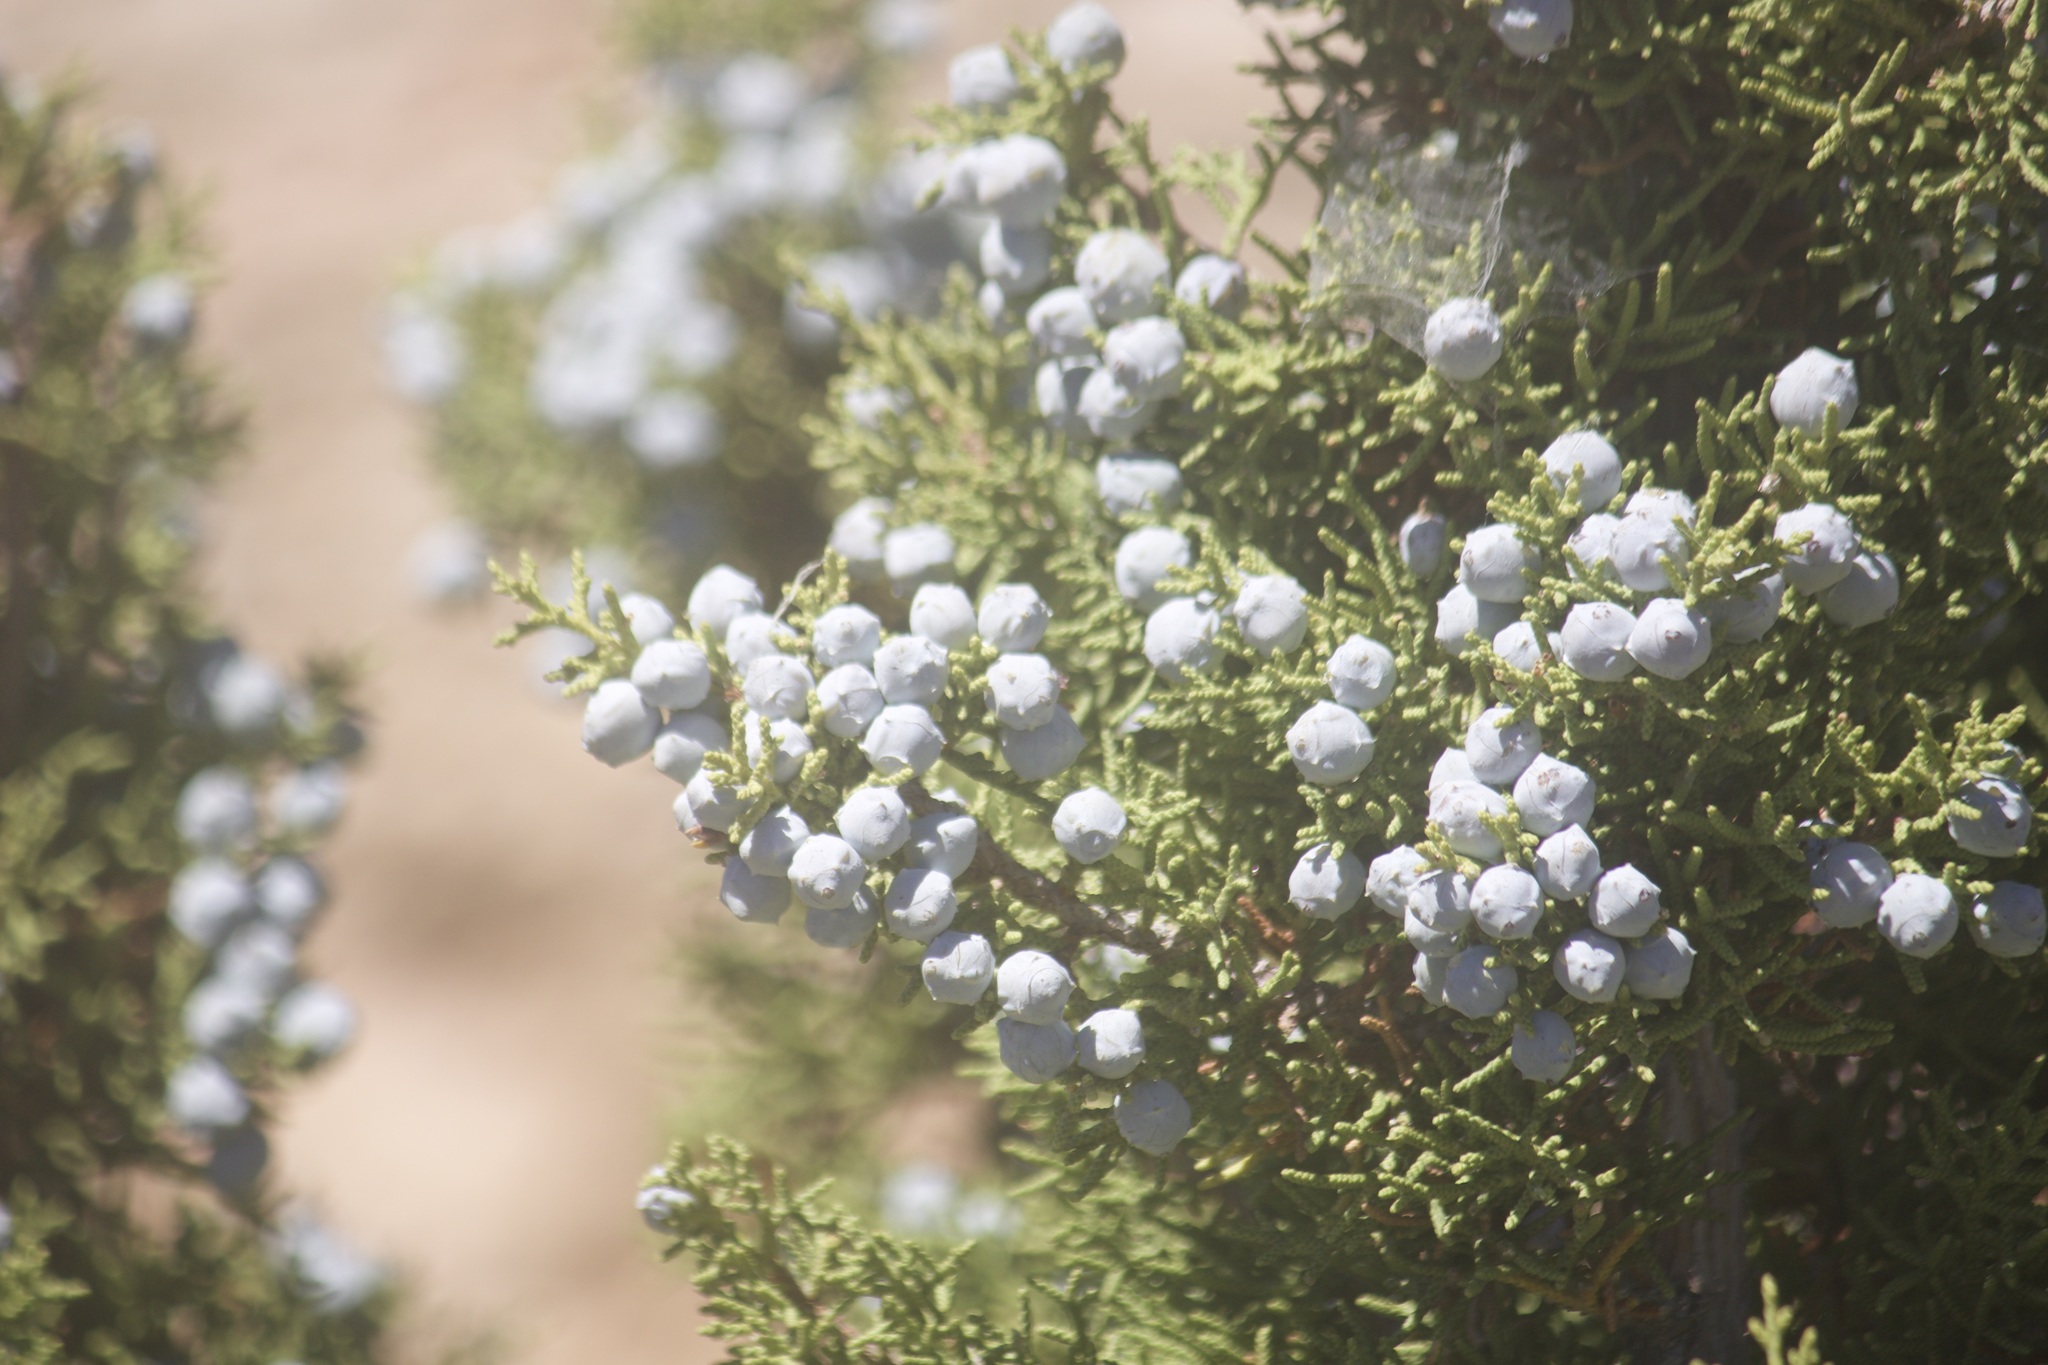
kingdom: Plantae
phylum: Tracheophyta
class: Pinopsida
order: Pinales
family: Cupressaceae
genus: Juniperus
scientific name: Juniperus californica
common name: California juniper
